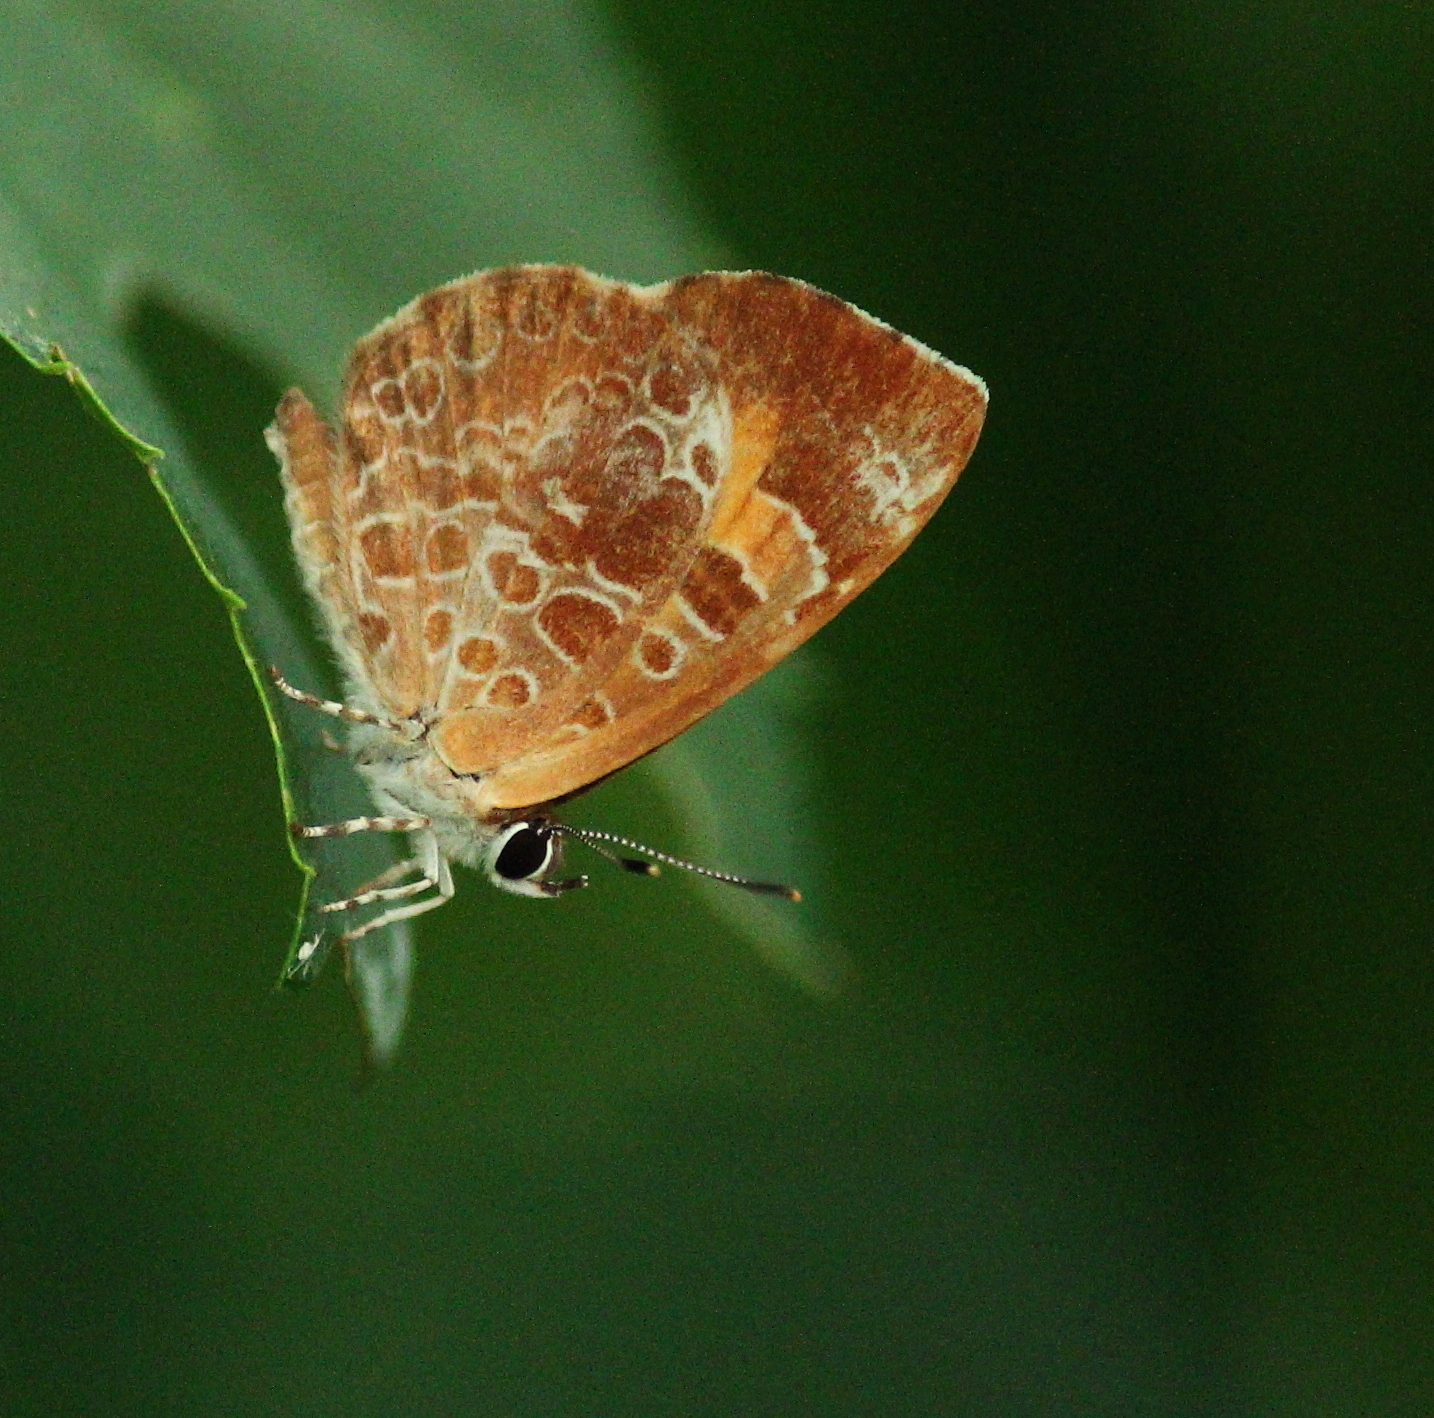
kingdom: Animalia
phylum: Arthropoda
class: Insecta
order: Lepidoptera
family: Lycaenidae
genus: Feniseca
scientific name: Feniseca tarquinius
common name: Harvester
